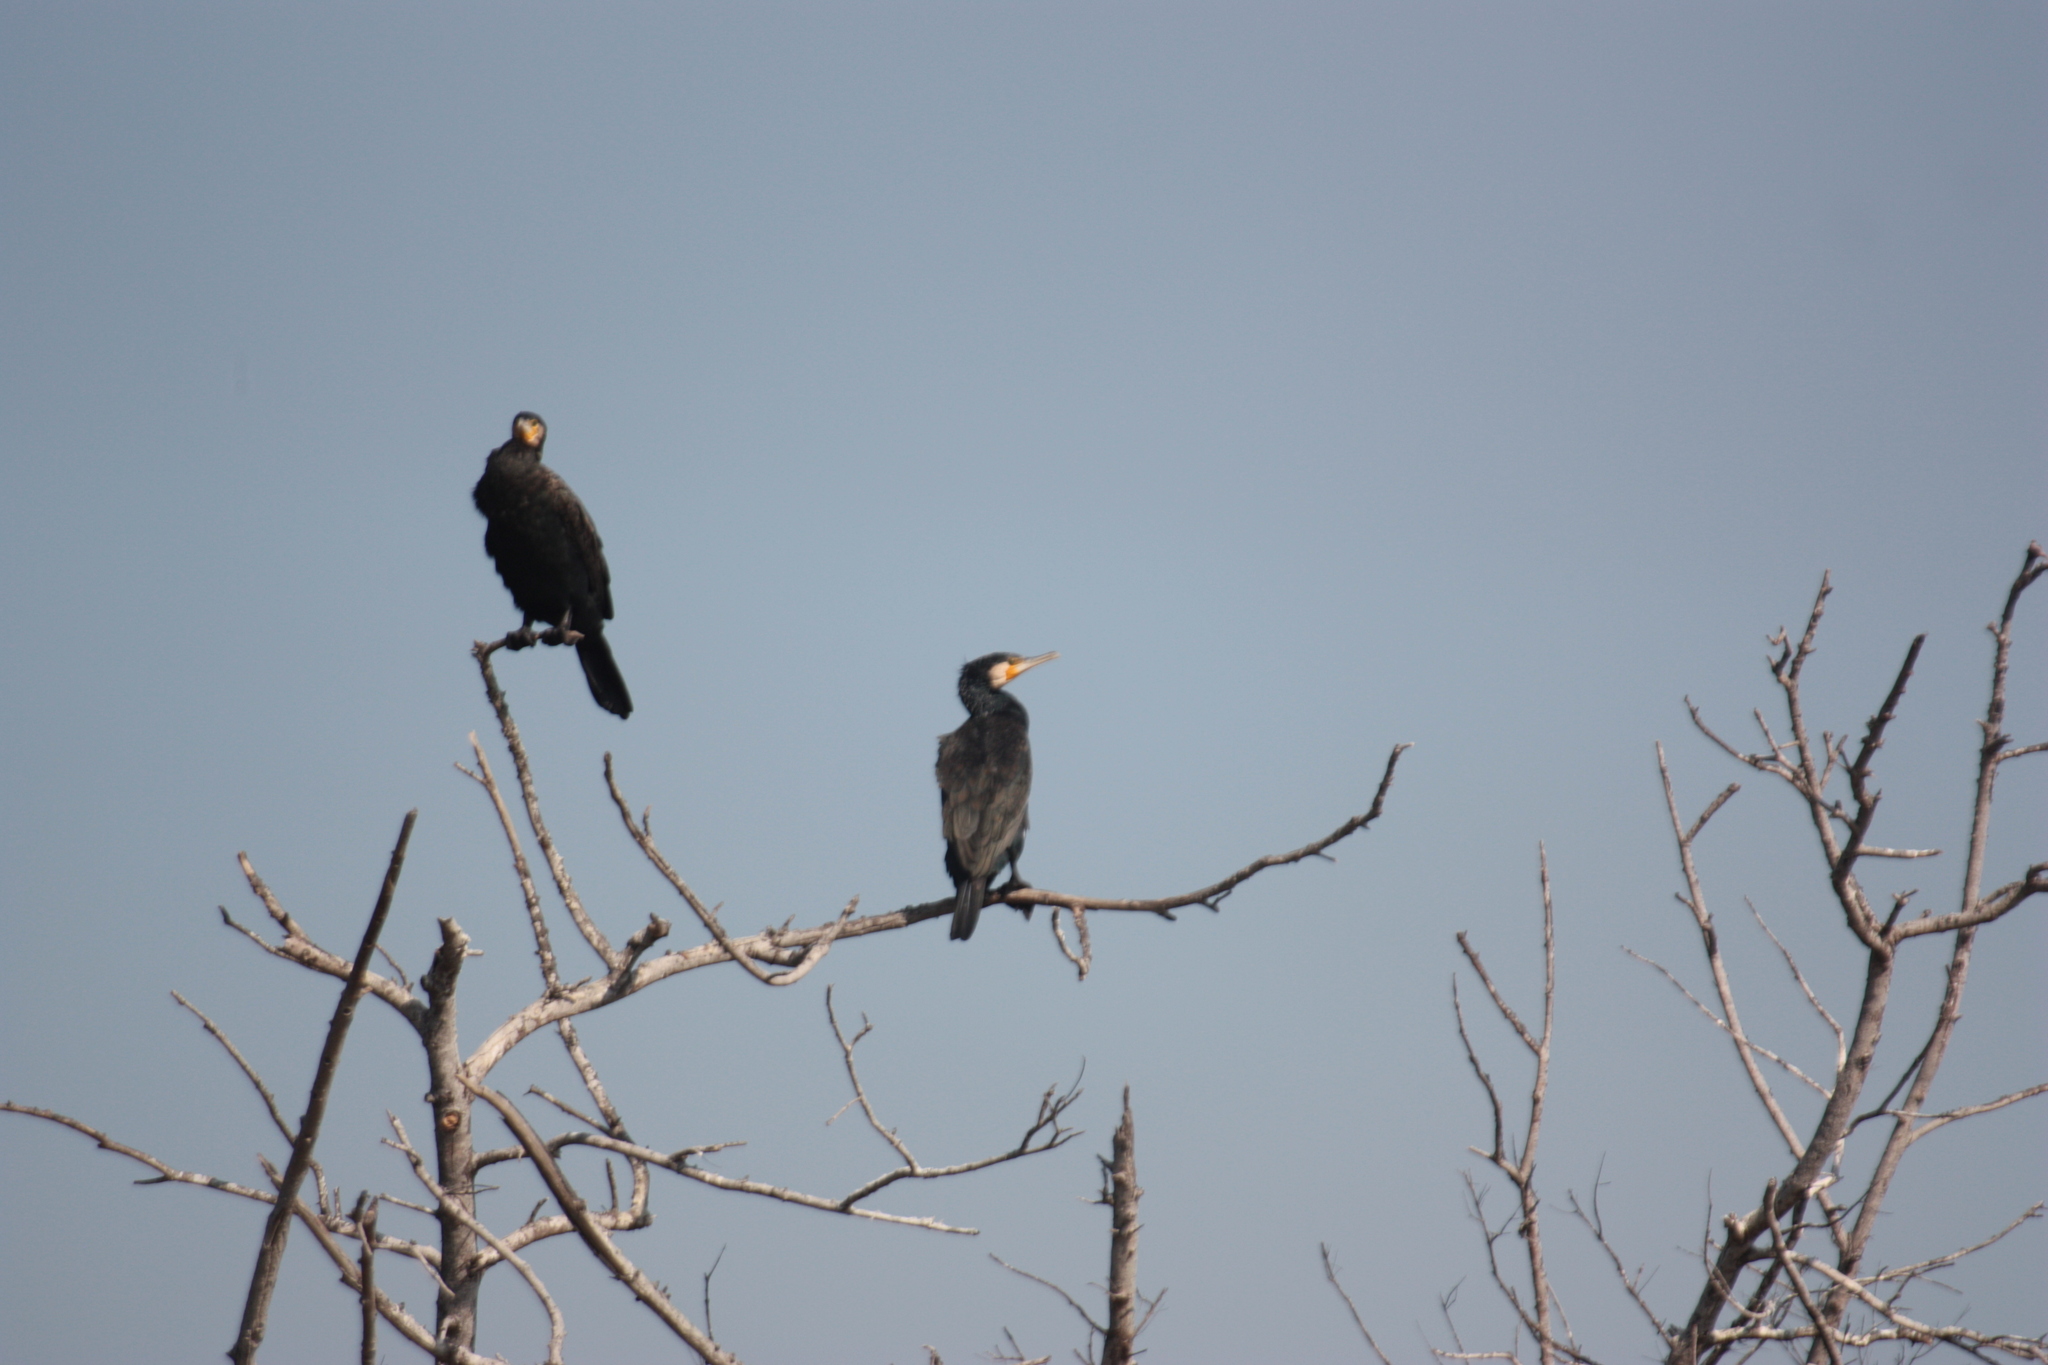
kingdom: Animalia
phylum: Chordata
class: Aves
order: Suliformes
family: Phalacrocoracidae
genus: Phalacrocorax
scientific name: Phalacrocorax carbo
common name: Great cormorant
